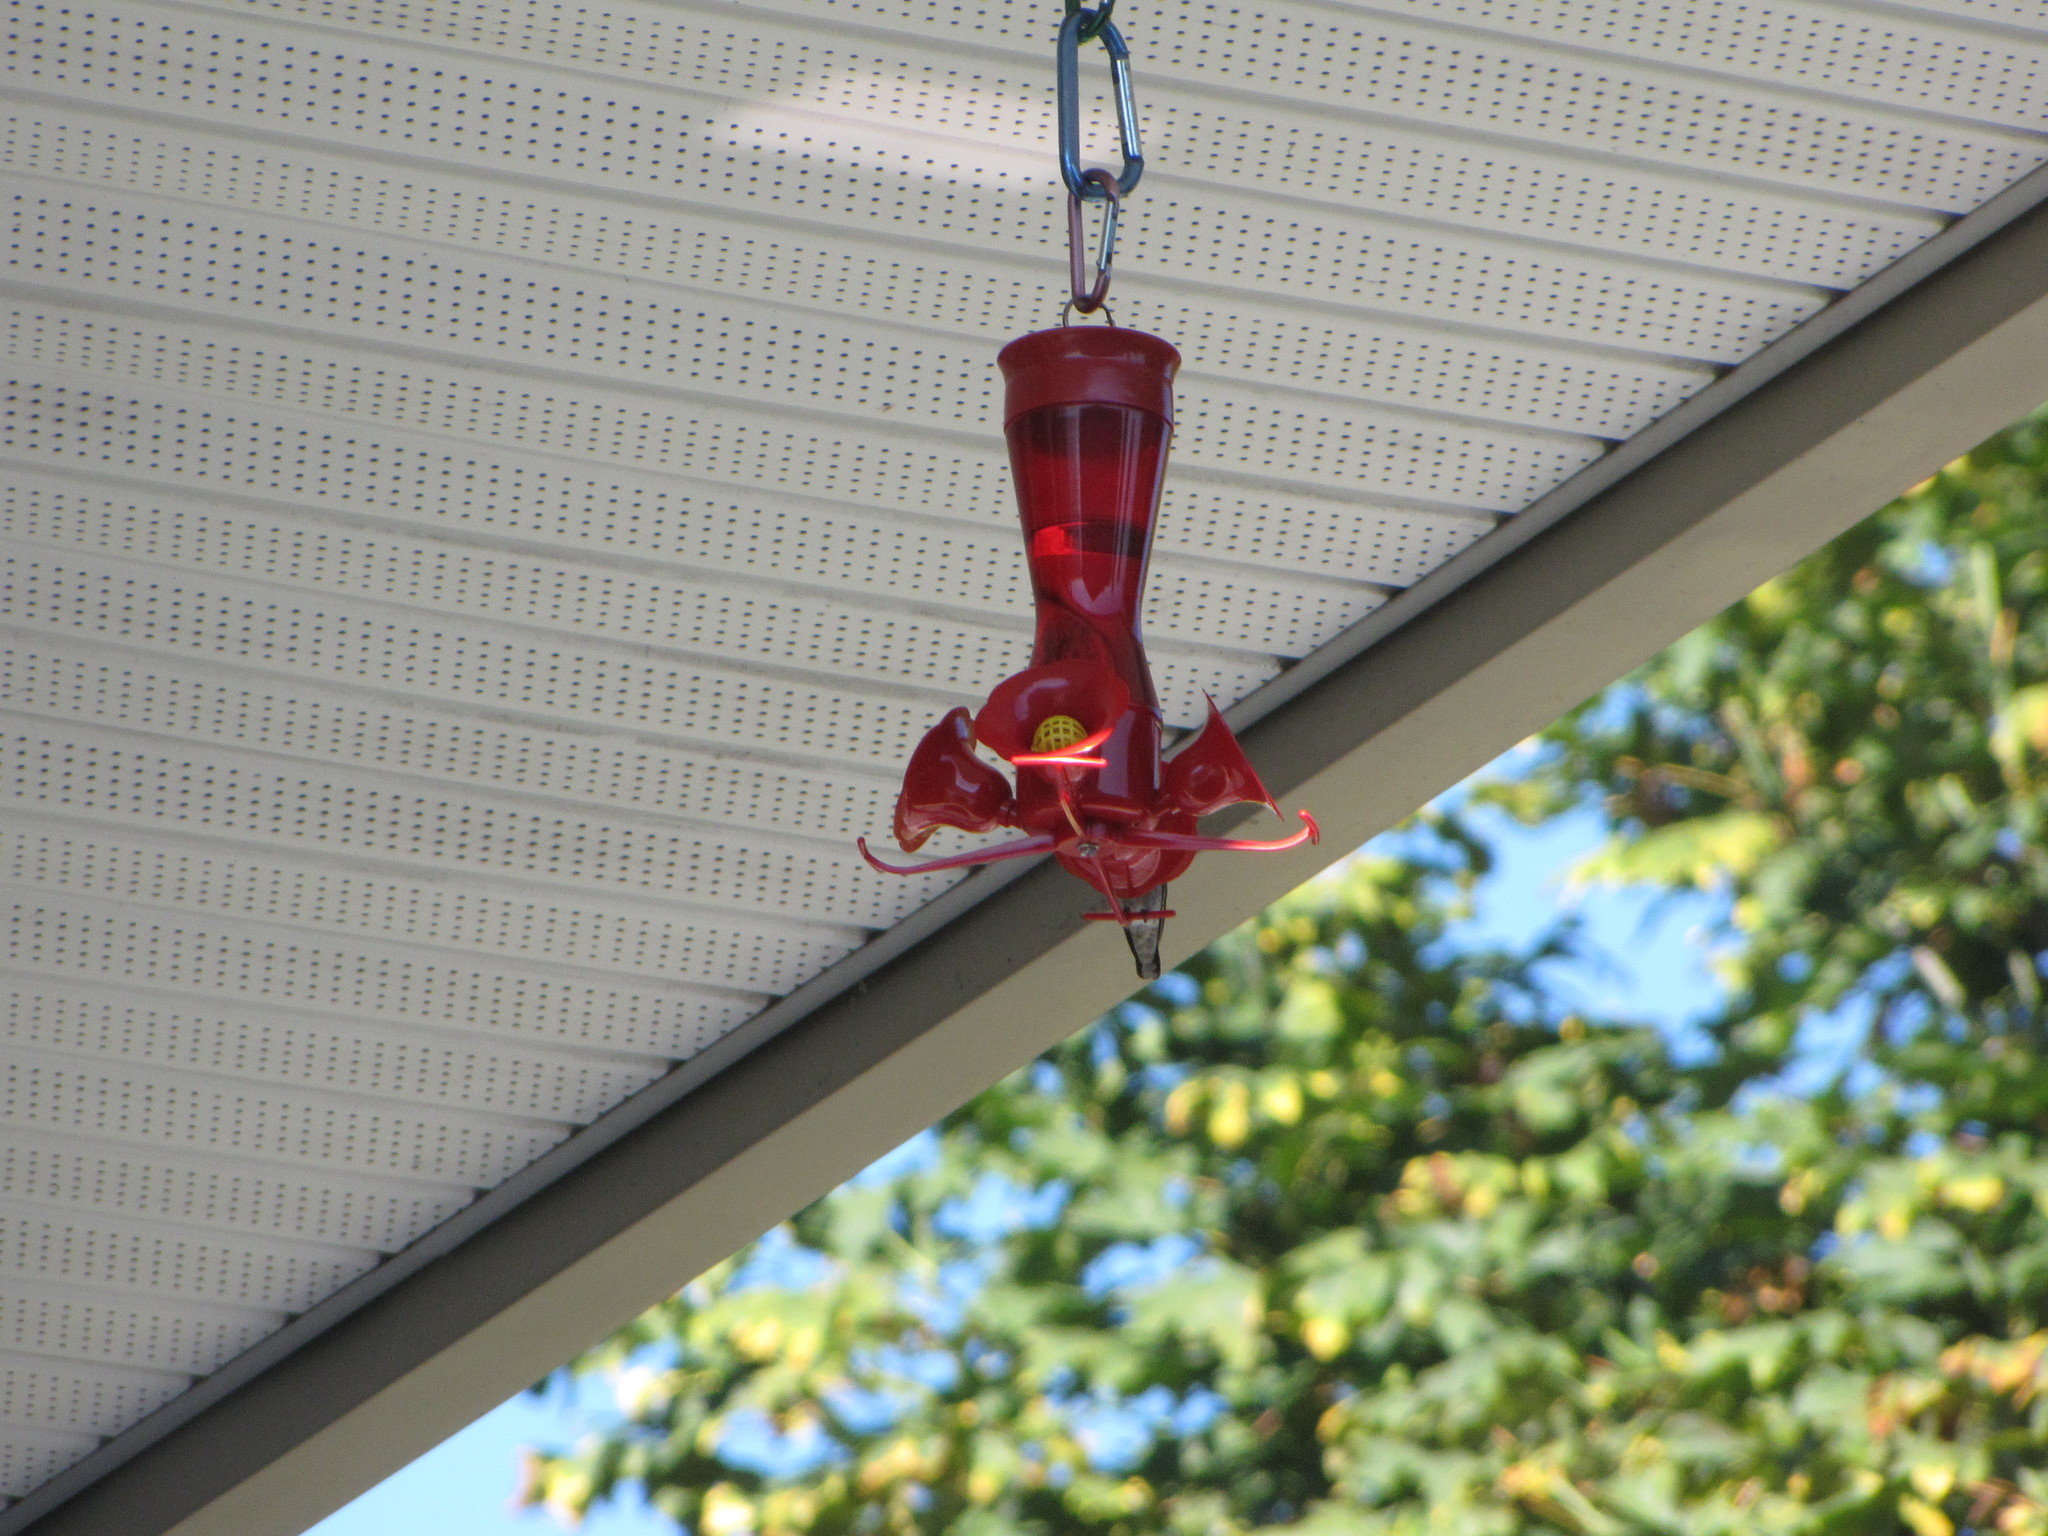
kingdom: Animalia
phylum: Chordata
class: Aves
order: Apodiformes
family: Trochilidae
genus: Calypte
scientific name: Calypte anna
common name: Anna's hummingbird
